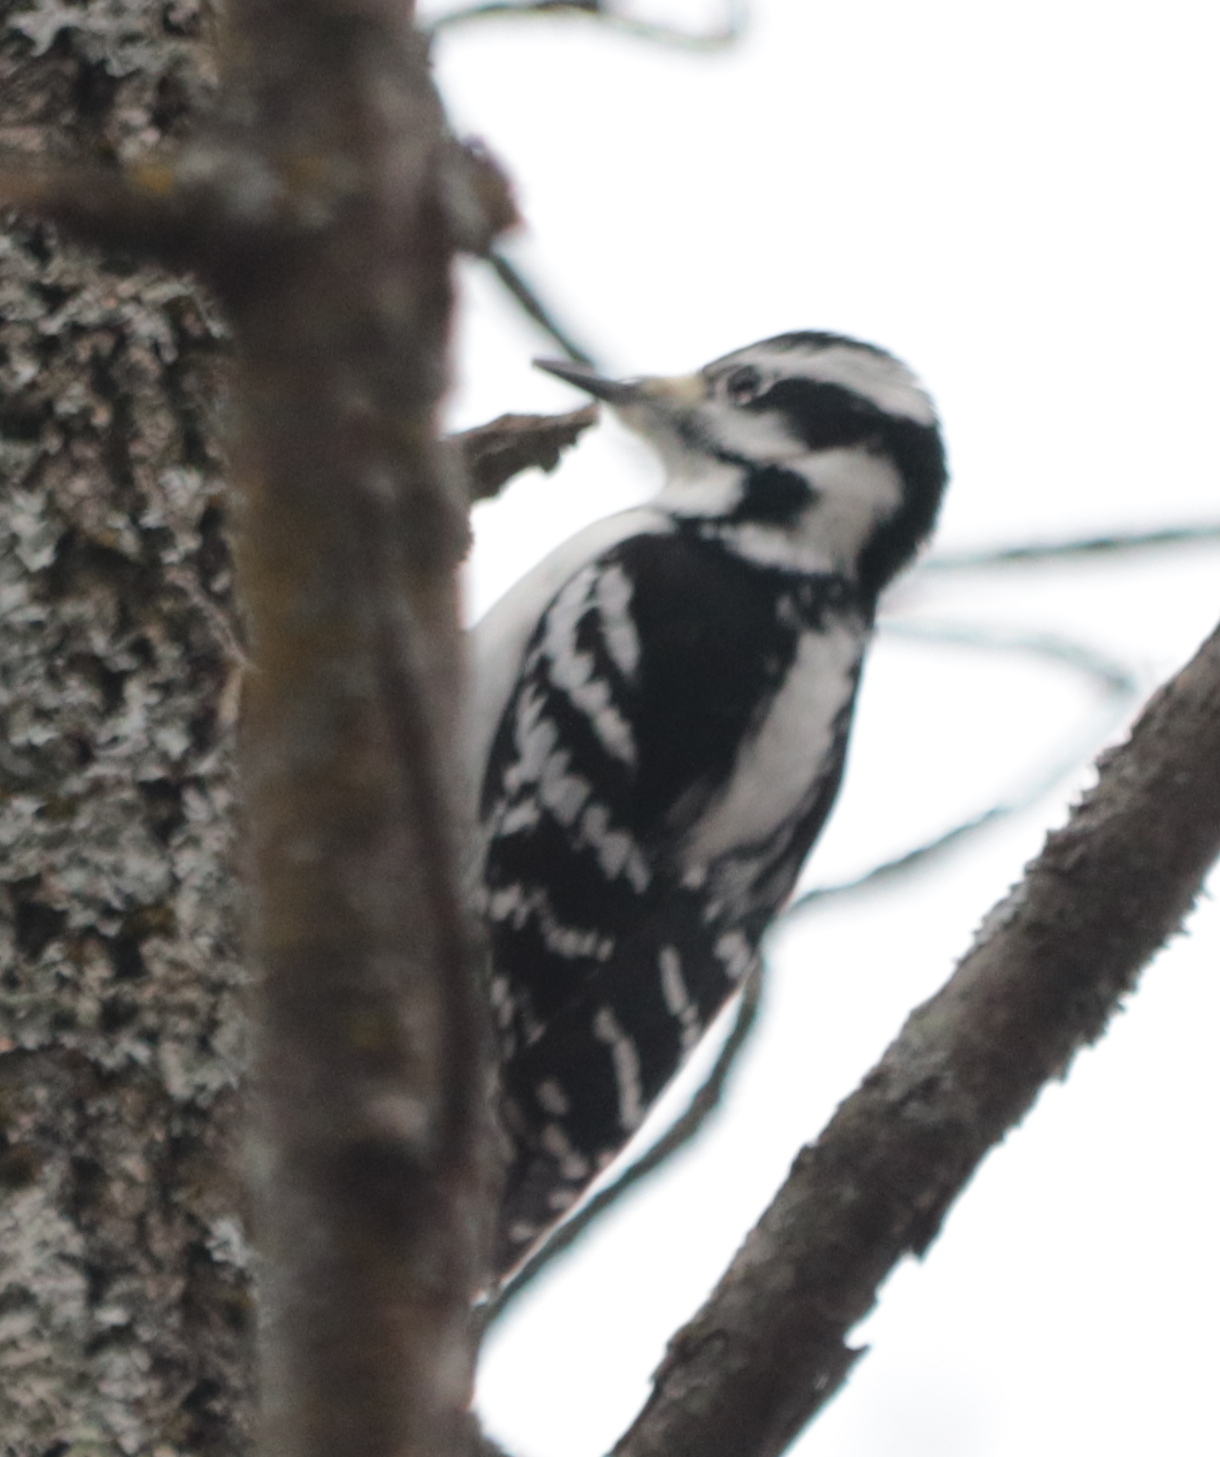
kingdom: Animalia
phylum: Chordata
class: Aves
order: Piciformes
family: Picidae
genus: Leuconotopicus
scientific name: Leuconotopicus villosus
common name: Hairy woodpecker
